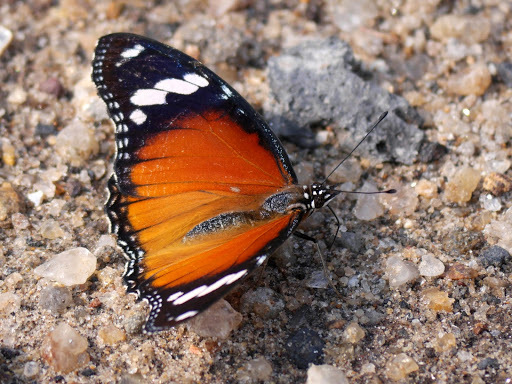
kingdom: Animalia
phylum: Arthropoda
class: Insecta
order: Lepidoptera
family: Nymphalidae
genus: Hypolimnas
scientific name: Hypolimnas misippus
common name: False plain tiger
